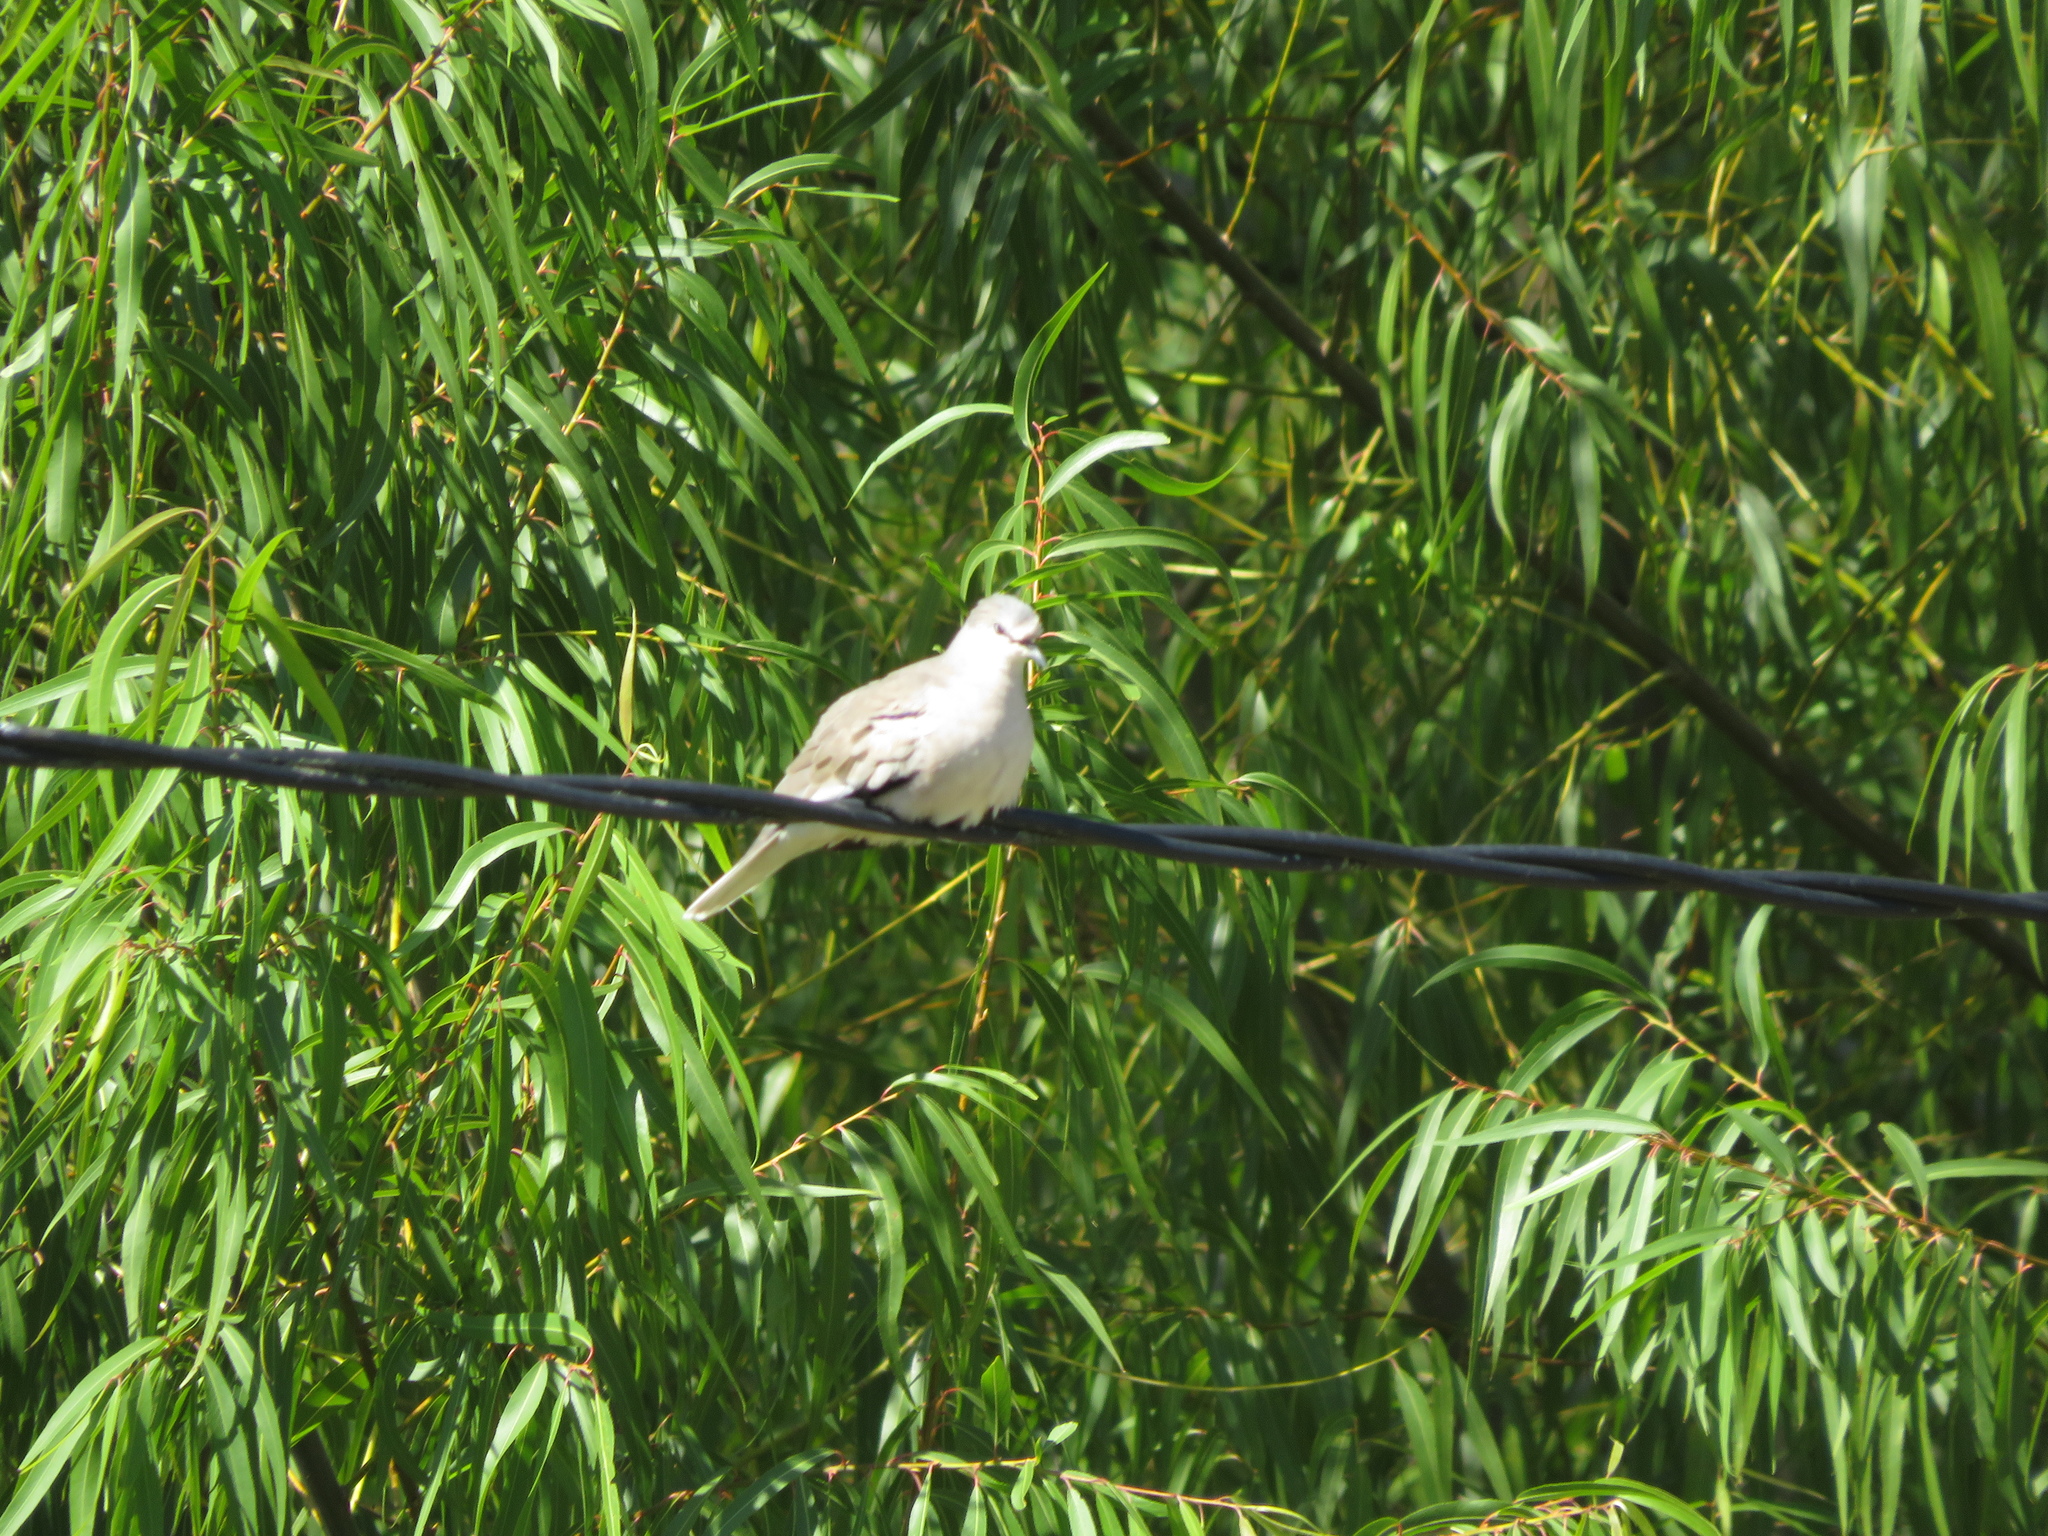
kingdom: Animalia
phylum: Chordata
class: Aves
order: Columbiformes
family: Columbidae
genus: Columbina
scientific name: Columbina picui
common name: Picui ground dove
